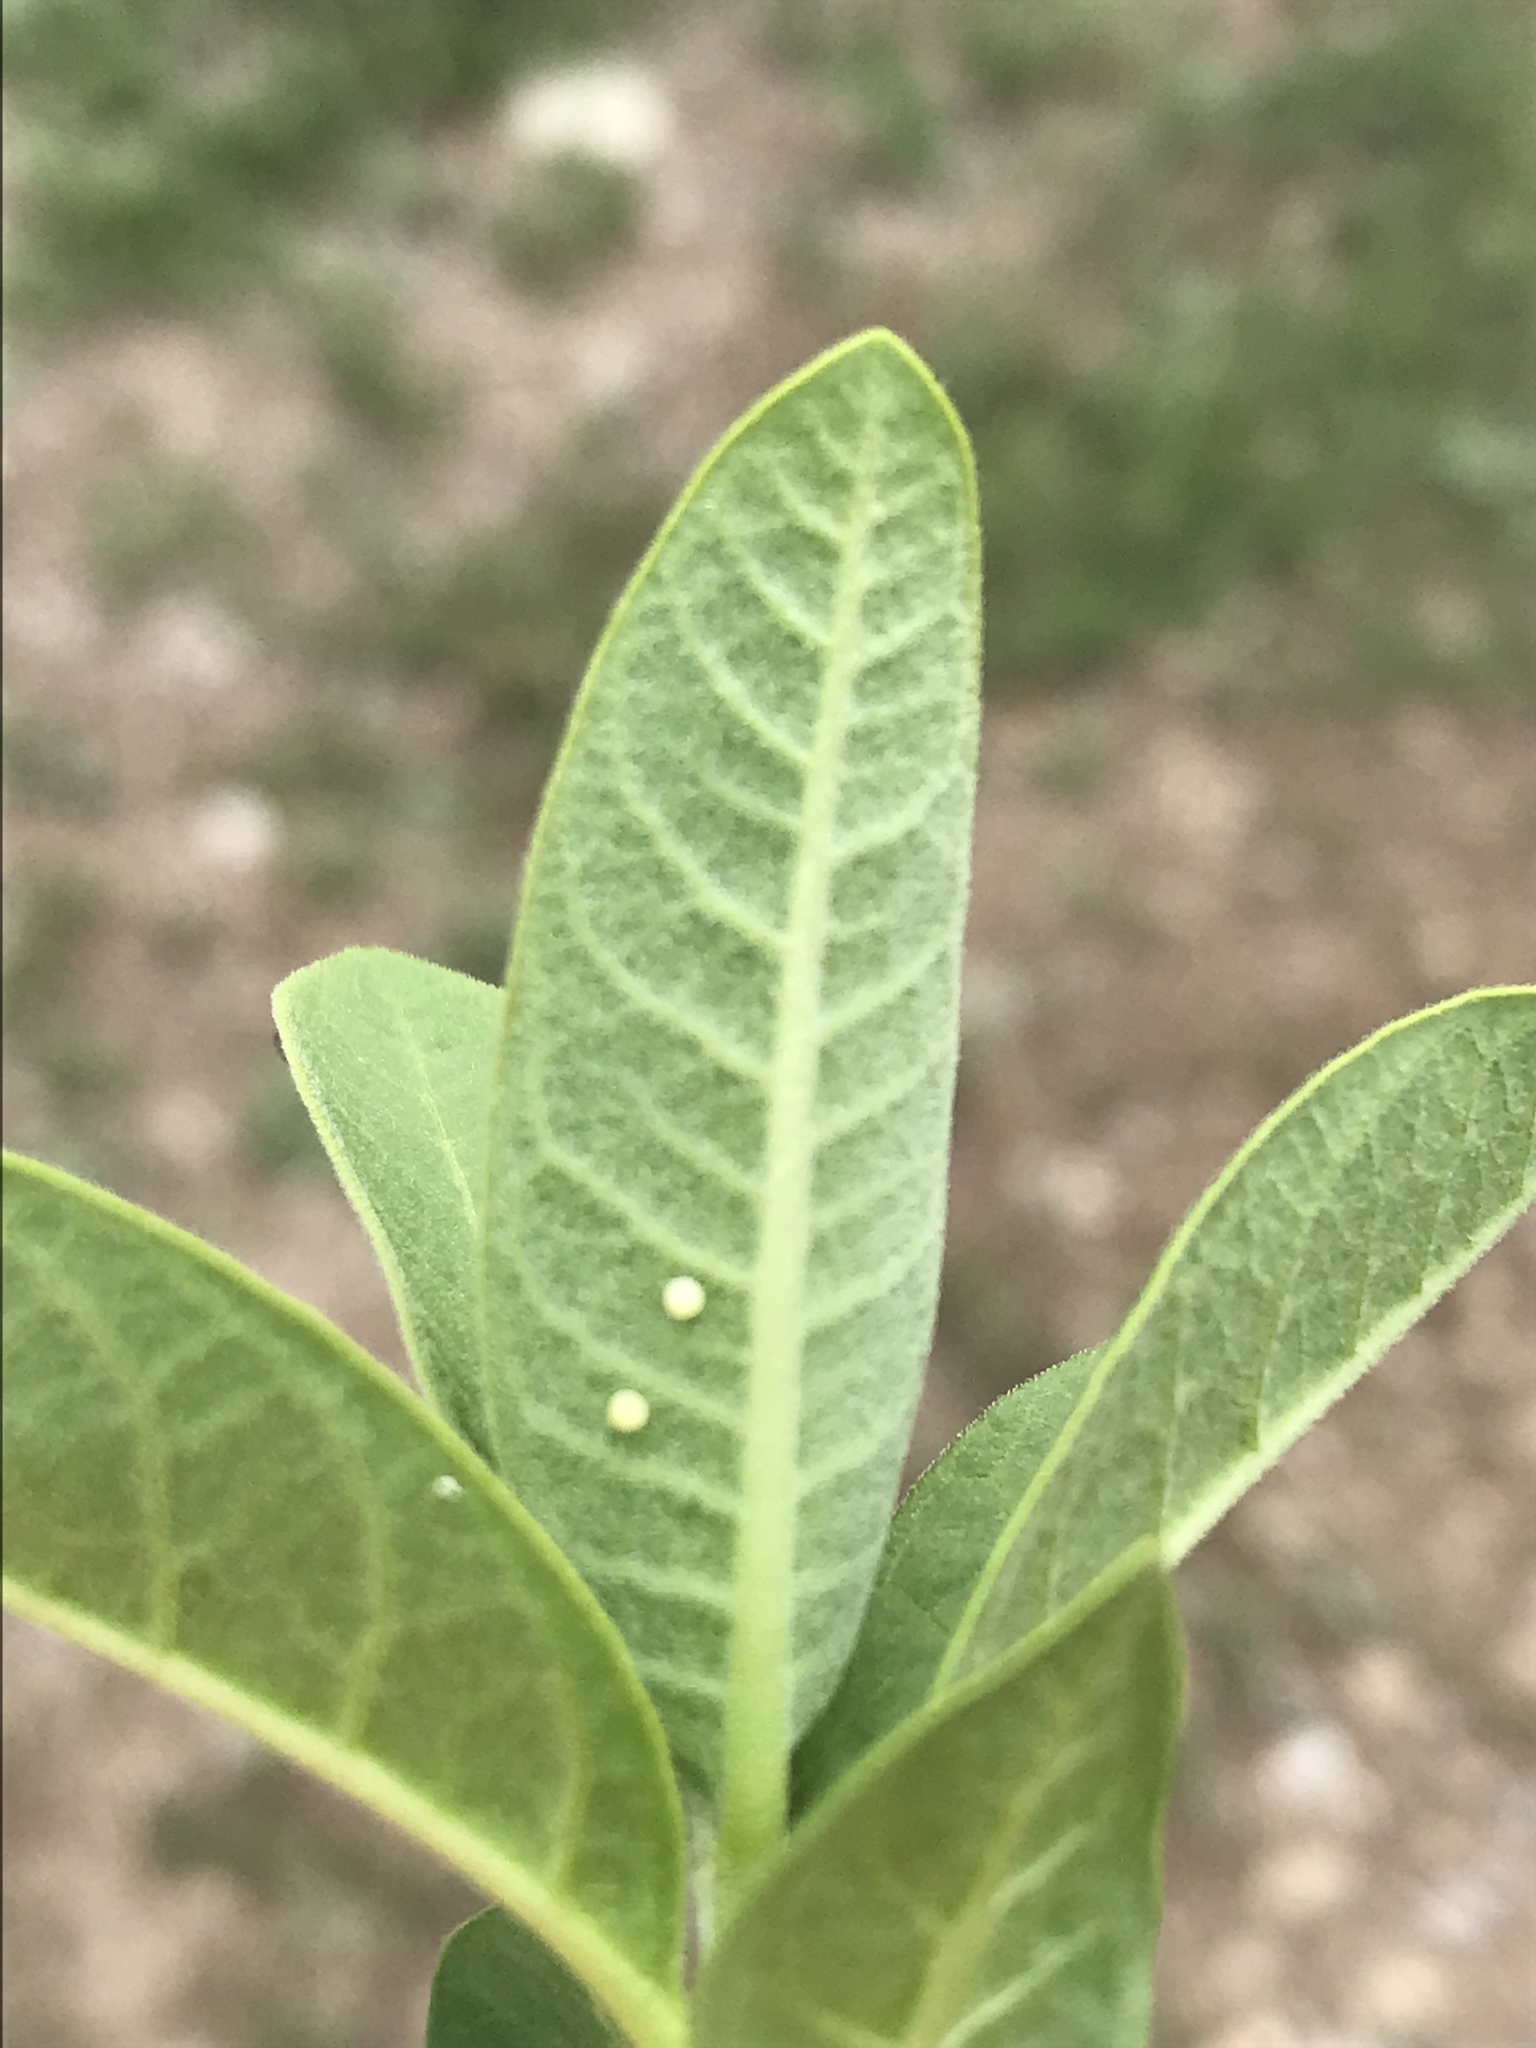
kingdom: Animalia
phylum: Arthropoda
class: Insecta
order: Lepidoptera
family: Nymphalidae
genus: Danaus
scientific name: Danaus plexippus
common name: Monarch
